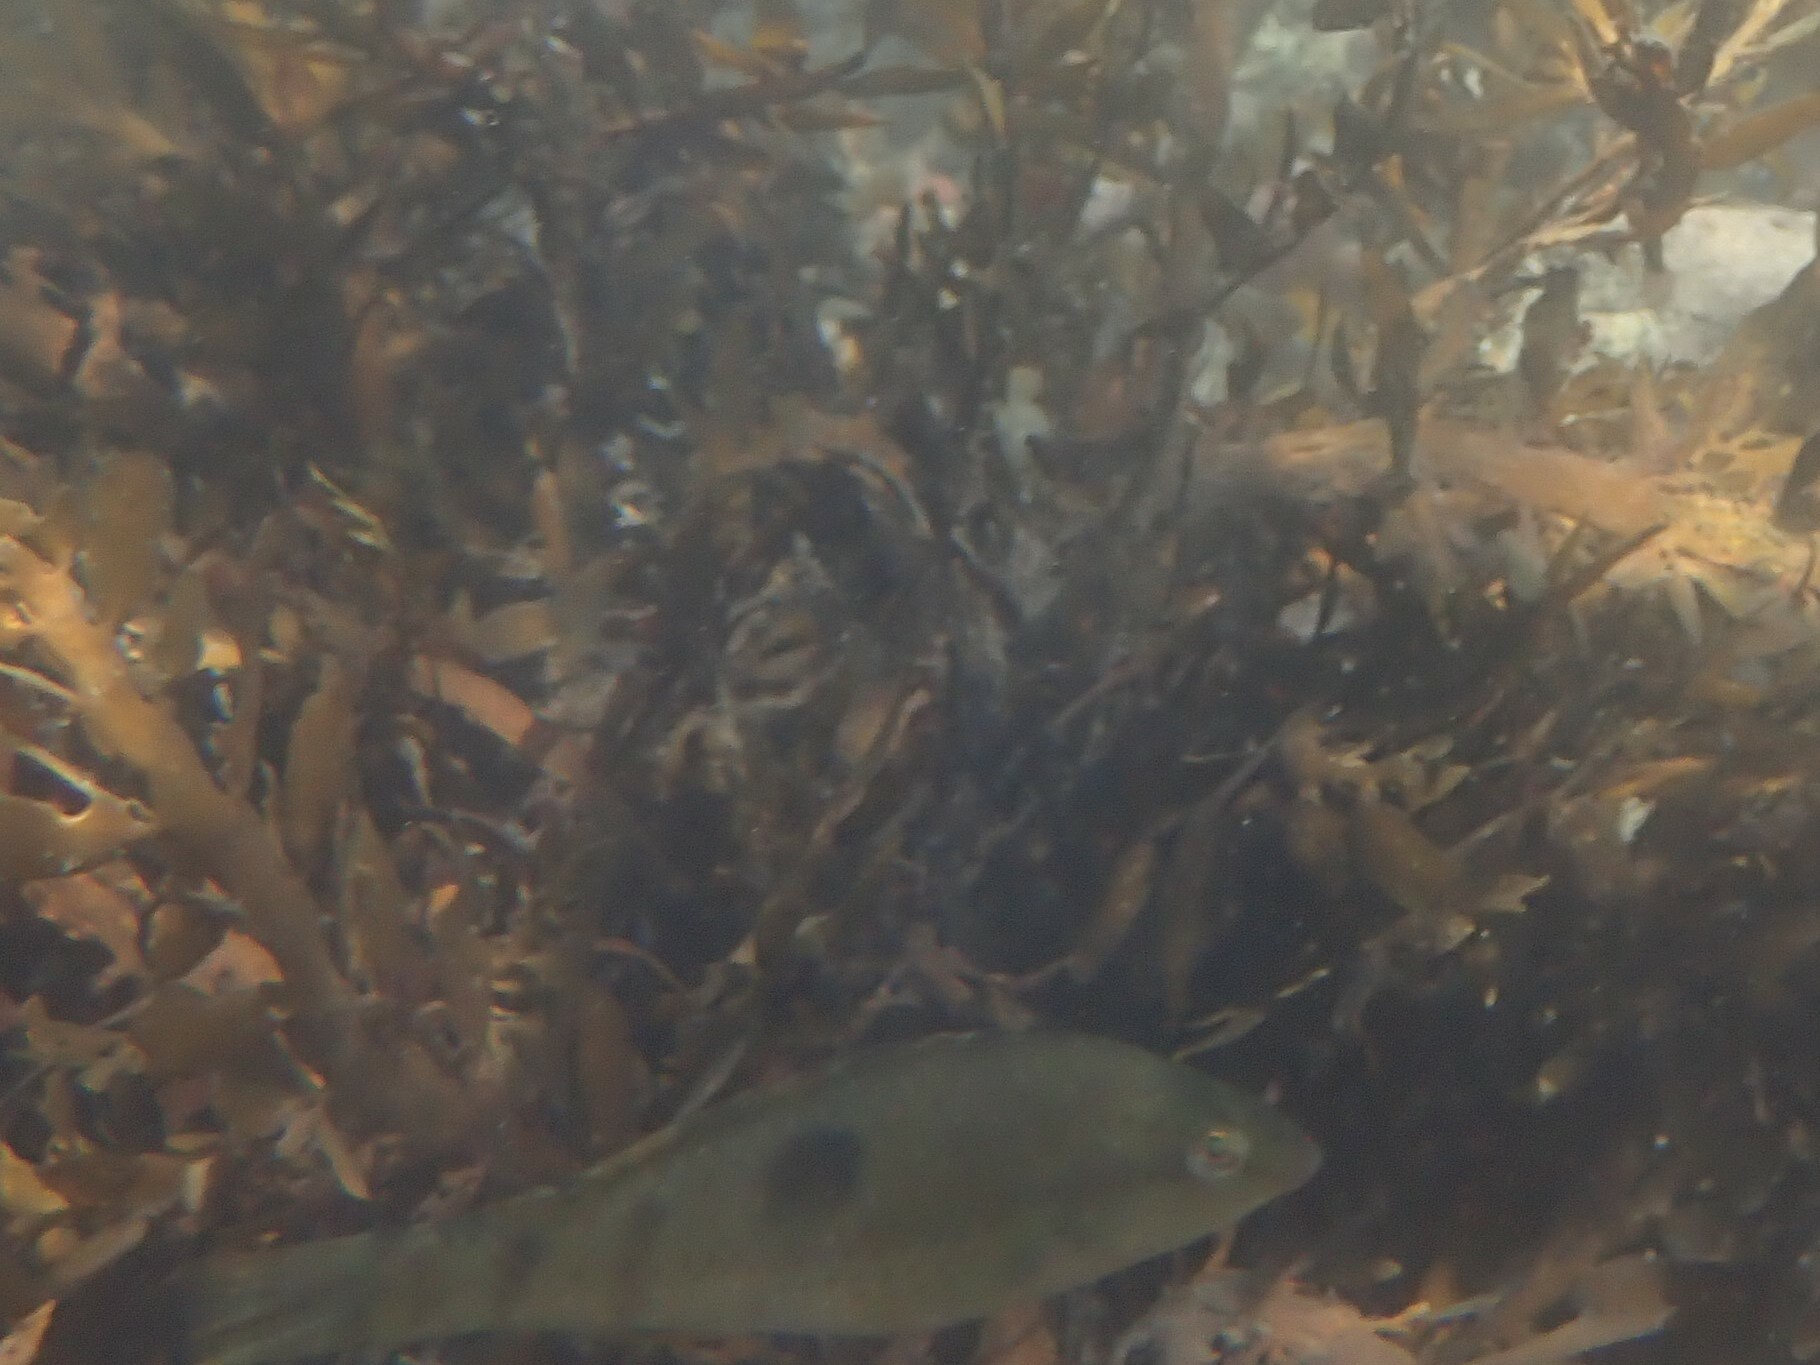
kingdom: Animalia
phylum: Chordata
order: Perciformes
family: Labridae
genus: Notolabrus
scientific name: Notolabrus celidotus
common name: Spotty
